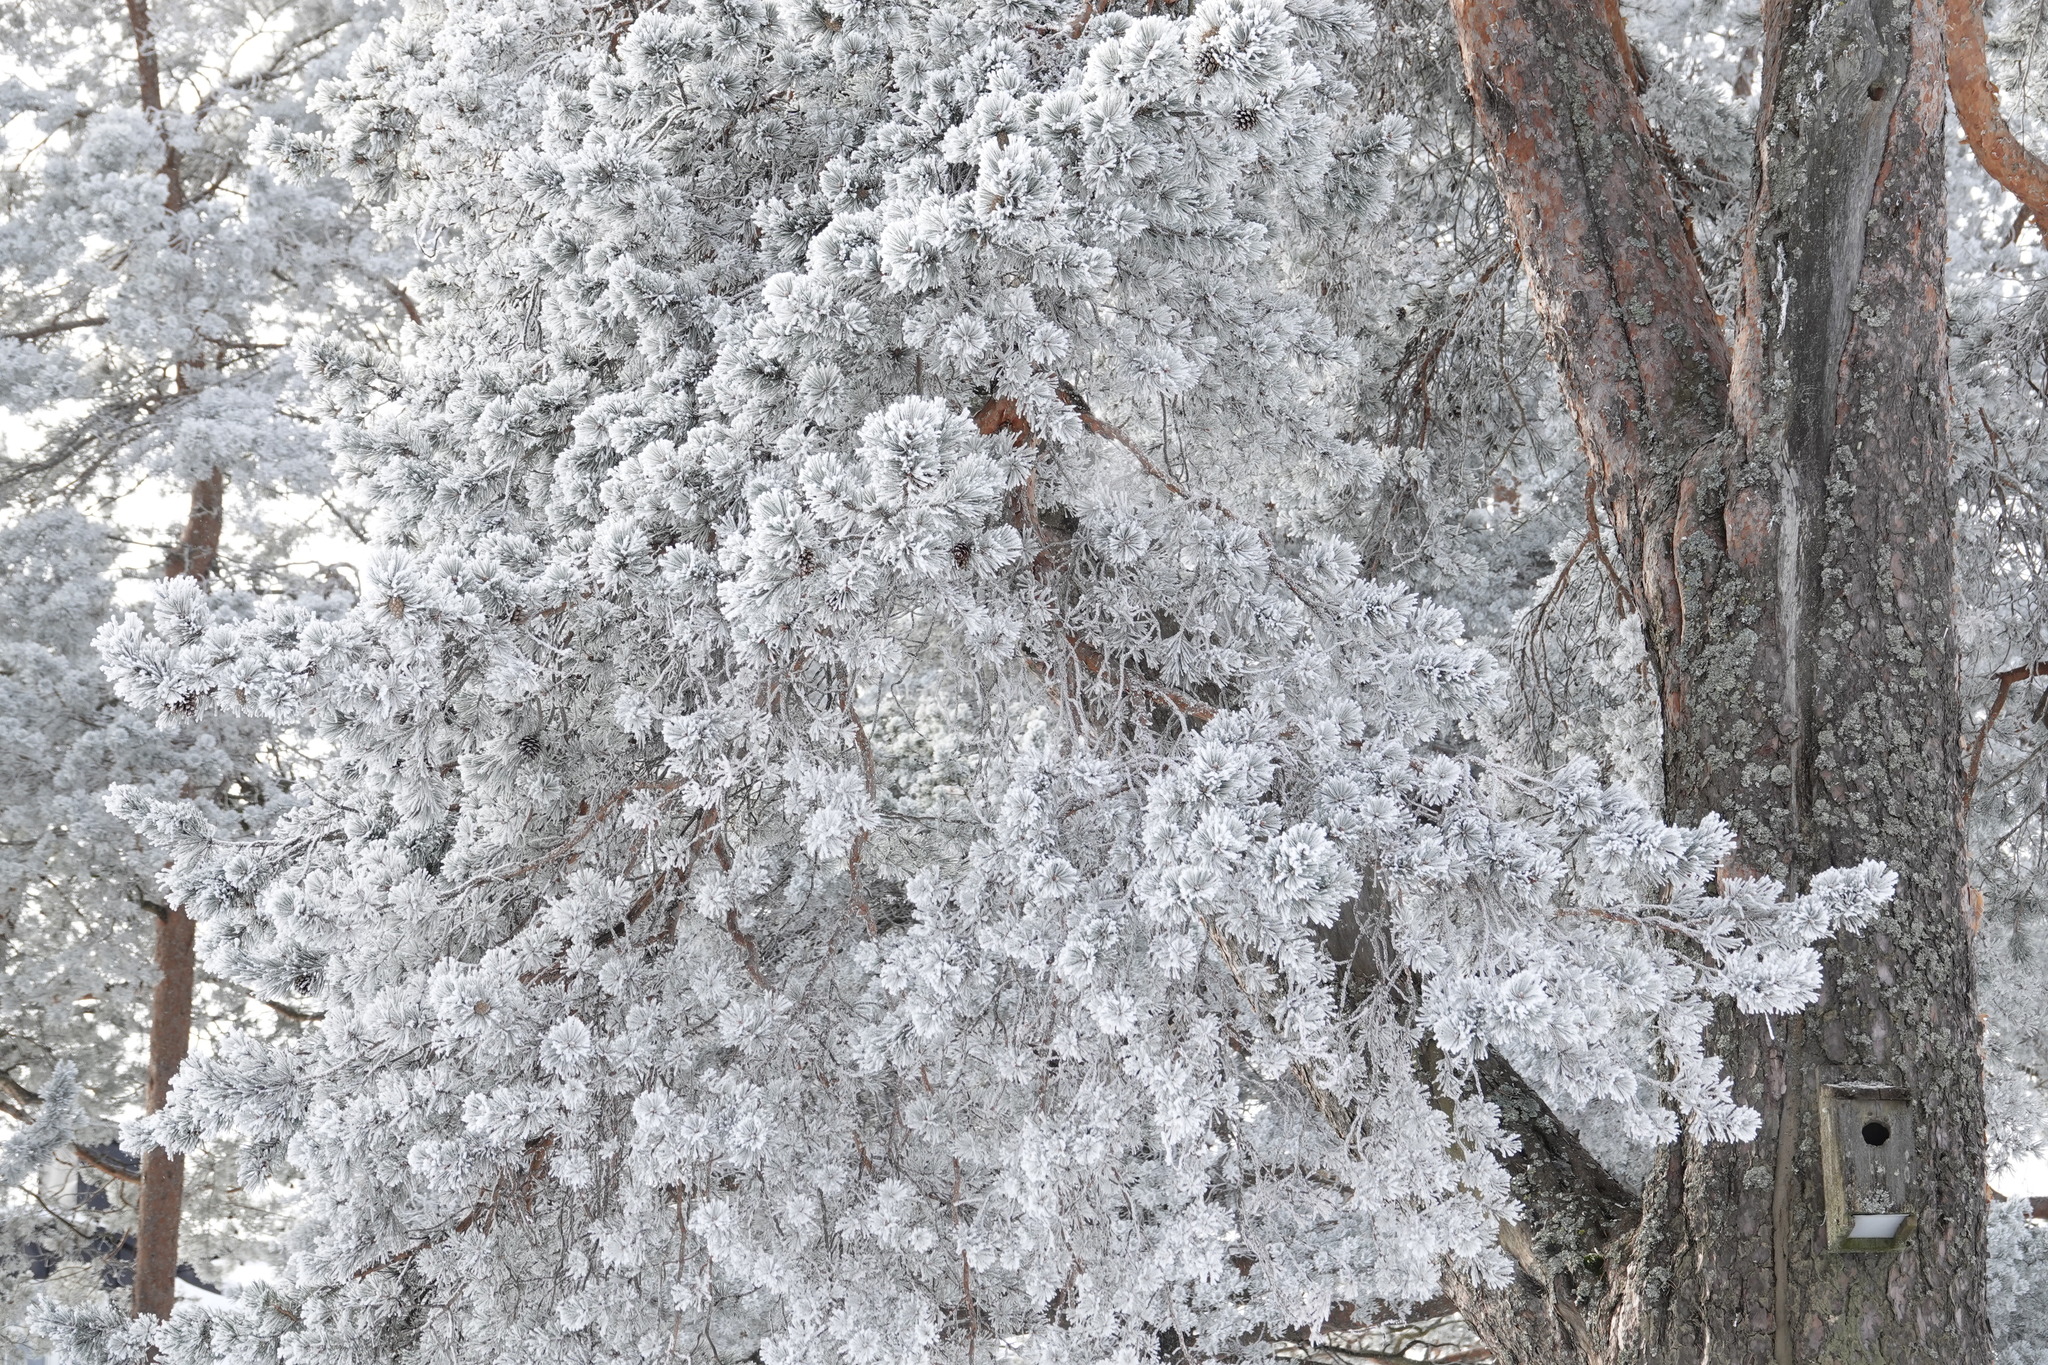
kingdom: Plantae
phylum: Tracheophyta
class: Pinopsida
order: Pinales
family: Pinaceae
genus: Pinus
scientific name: Pinus sylvestris
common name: Scots pine
